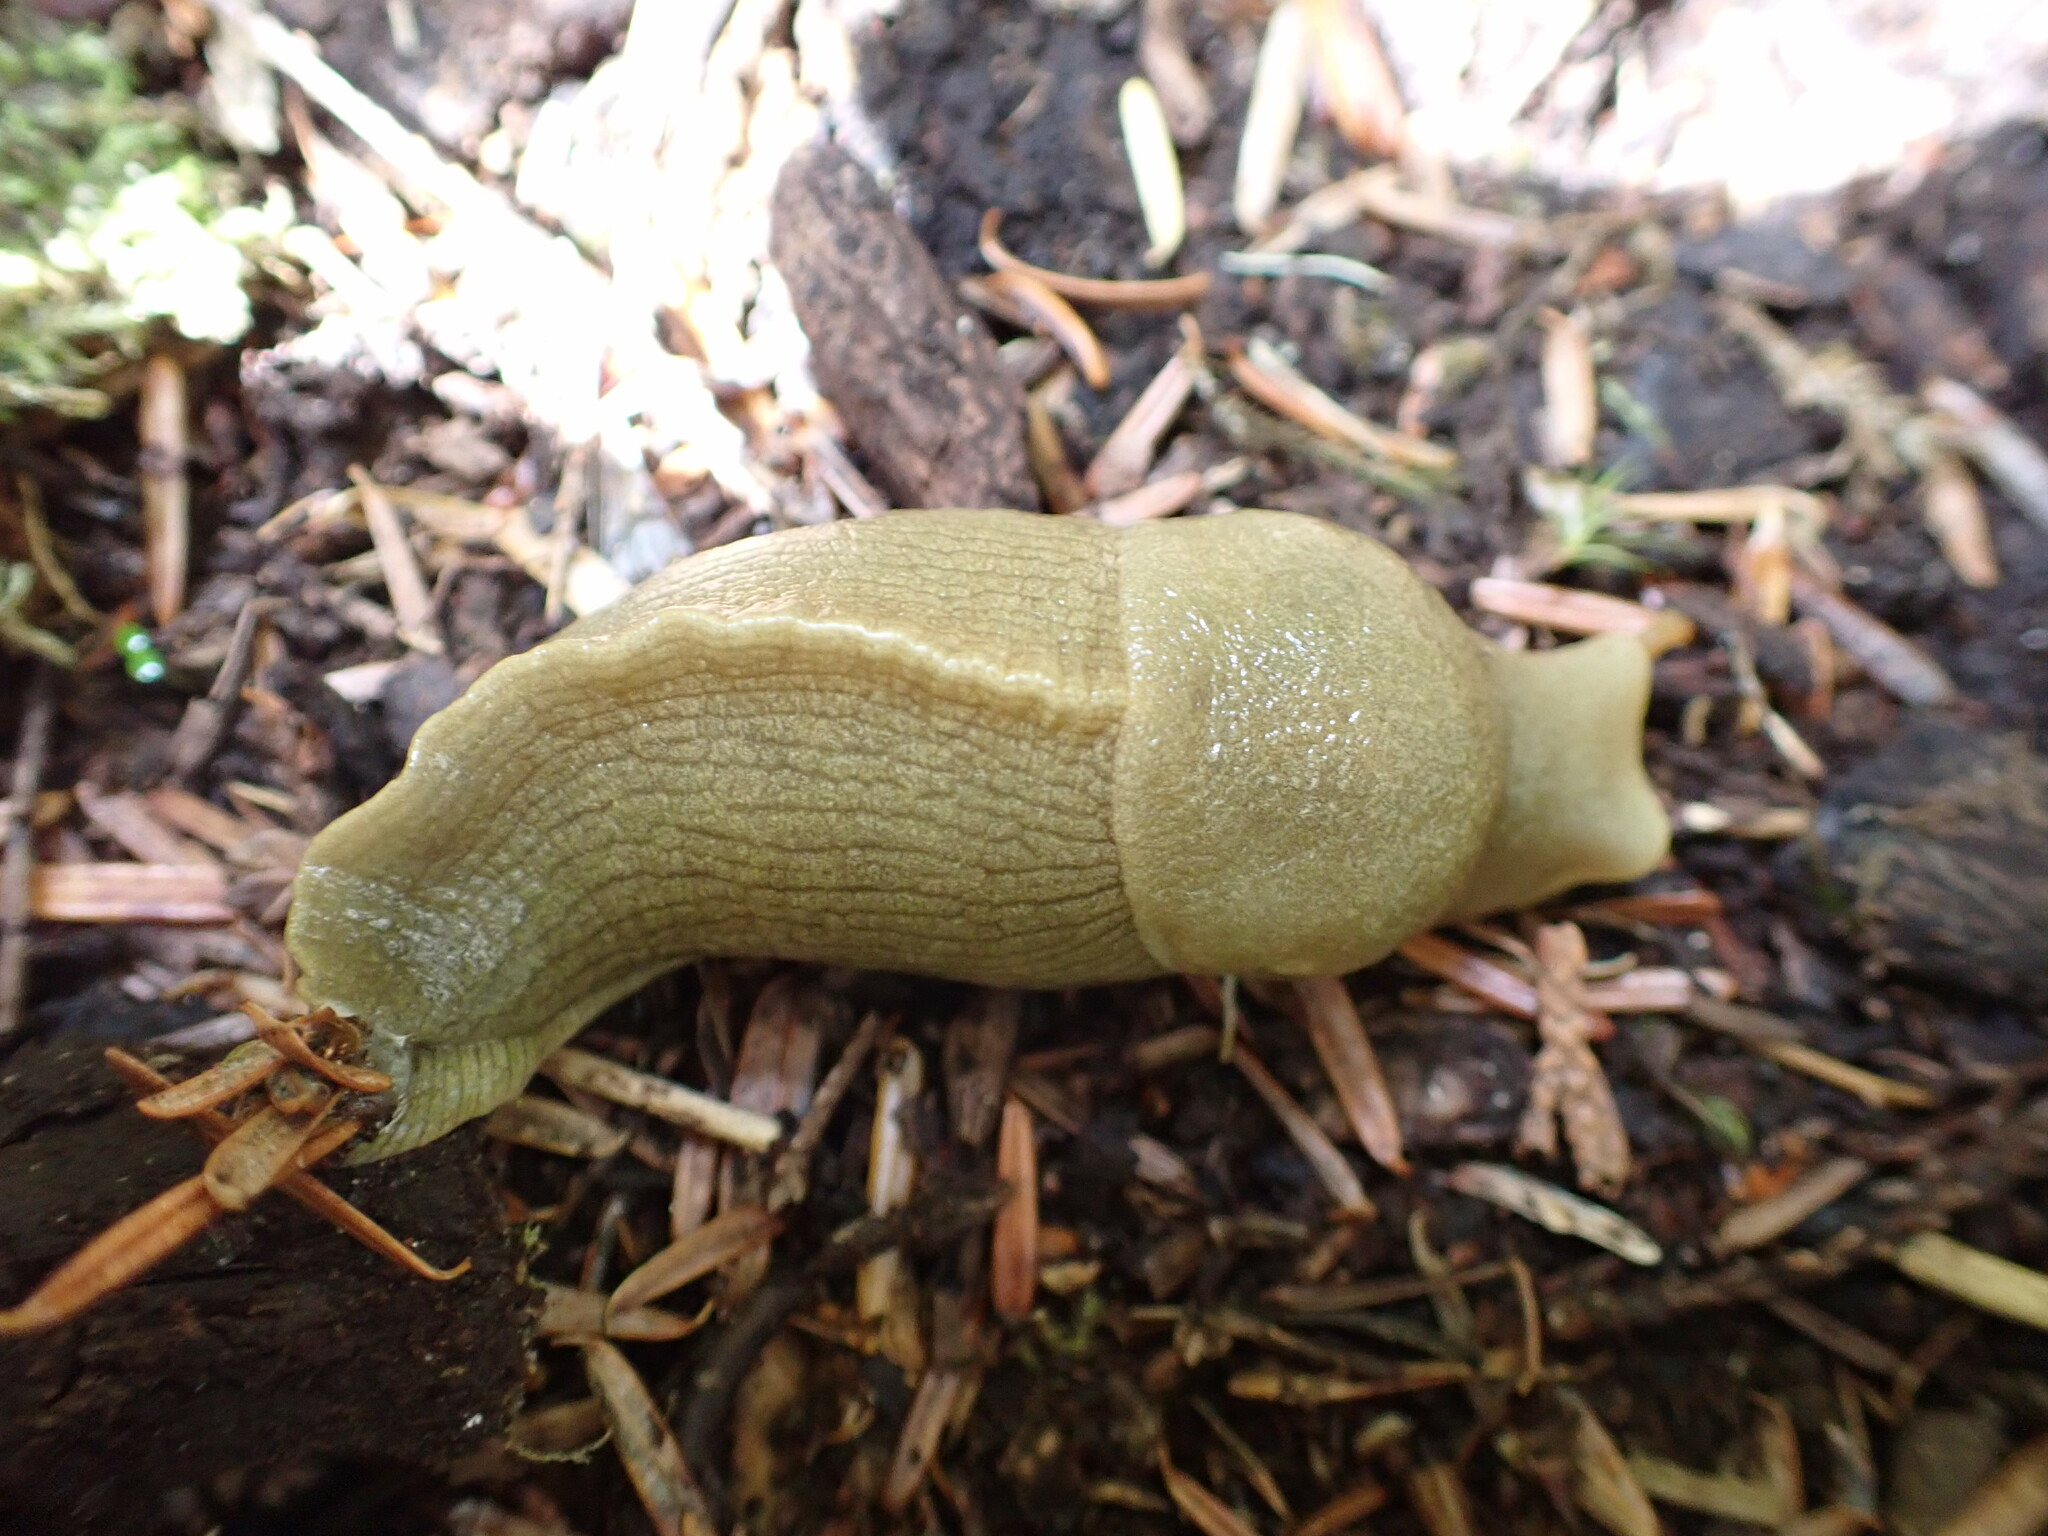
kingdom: Animalia
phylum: Mollusca
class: Gastropoda
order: Stylommatophora
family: Ariolimacidae
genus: Ariolimax
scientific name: Ariolimax columbianus
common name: Pacific banana slug
